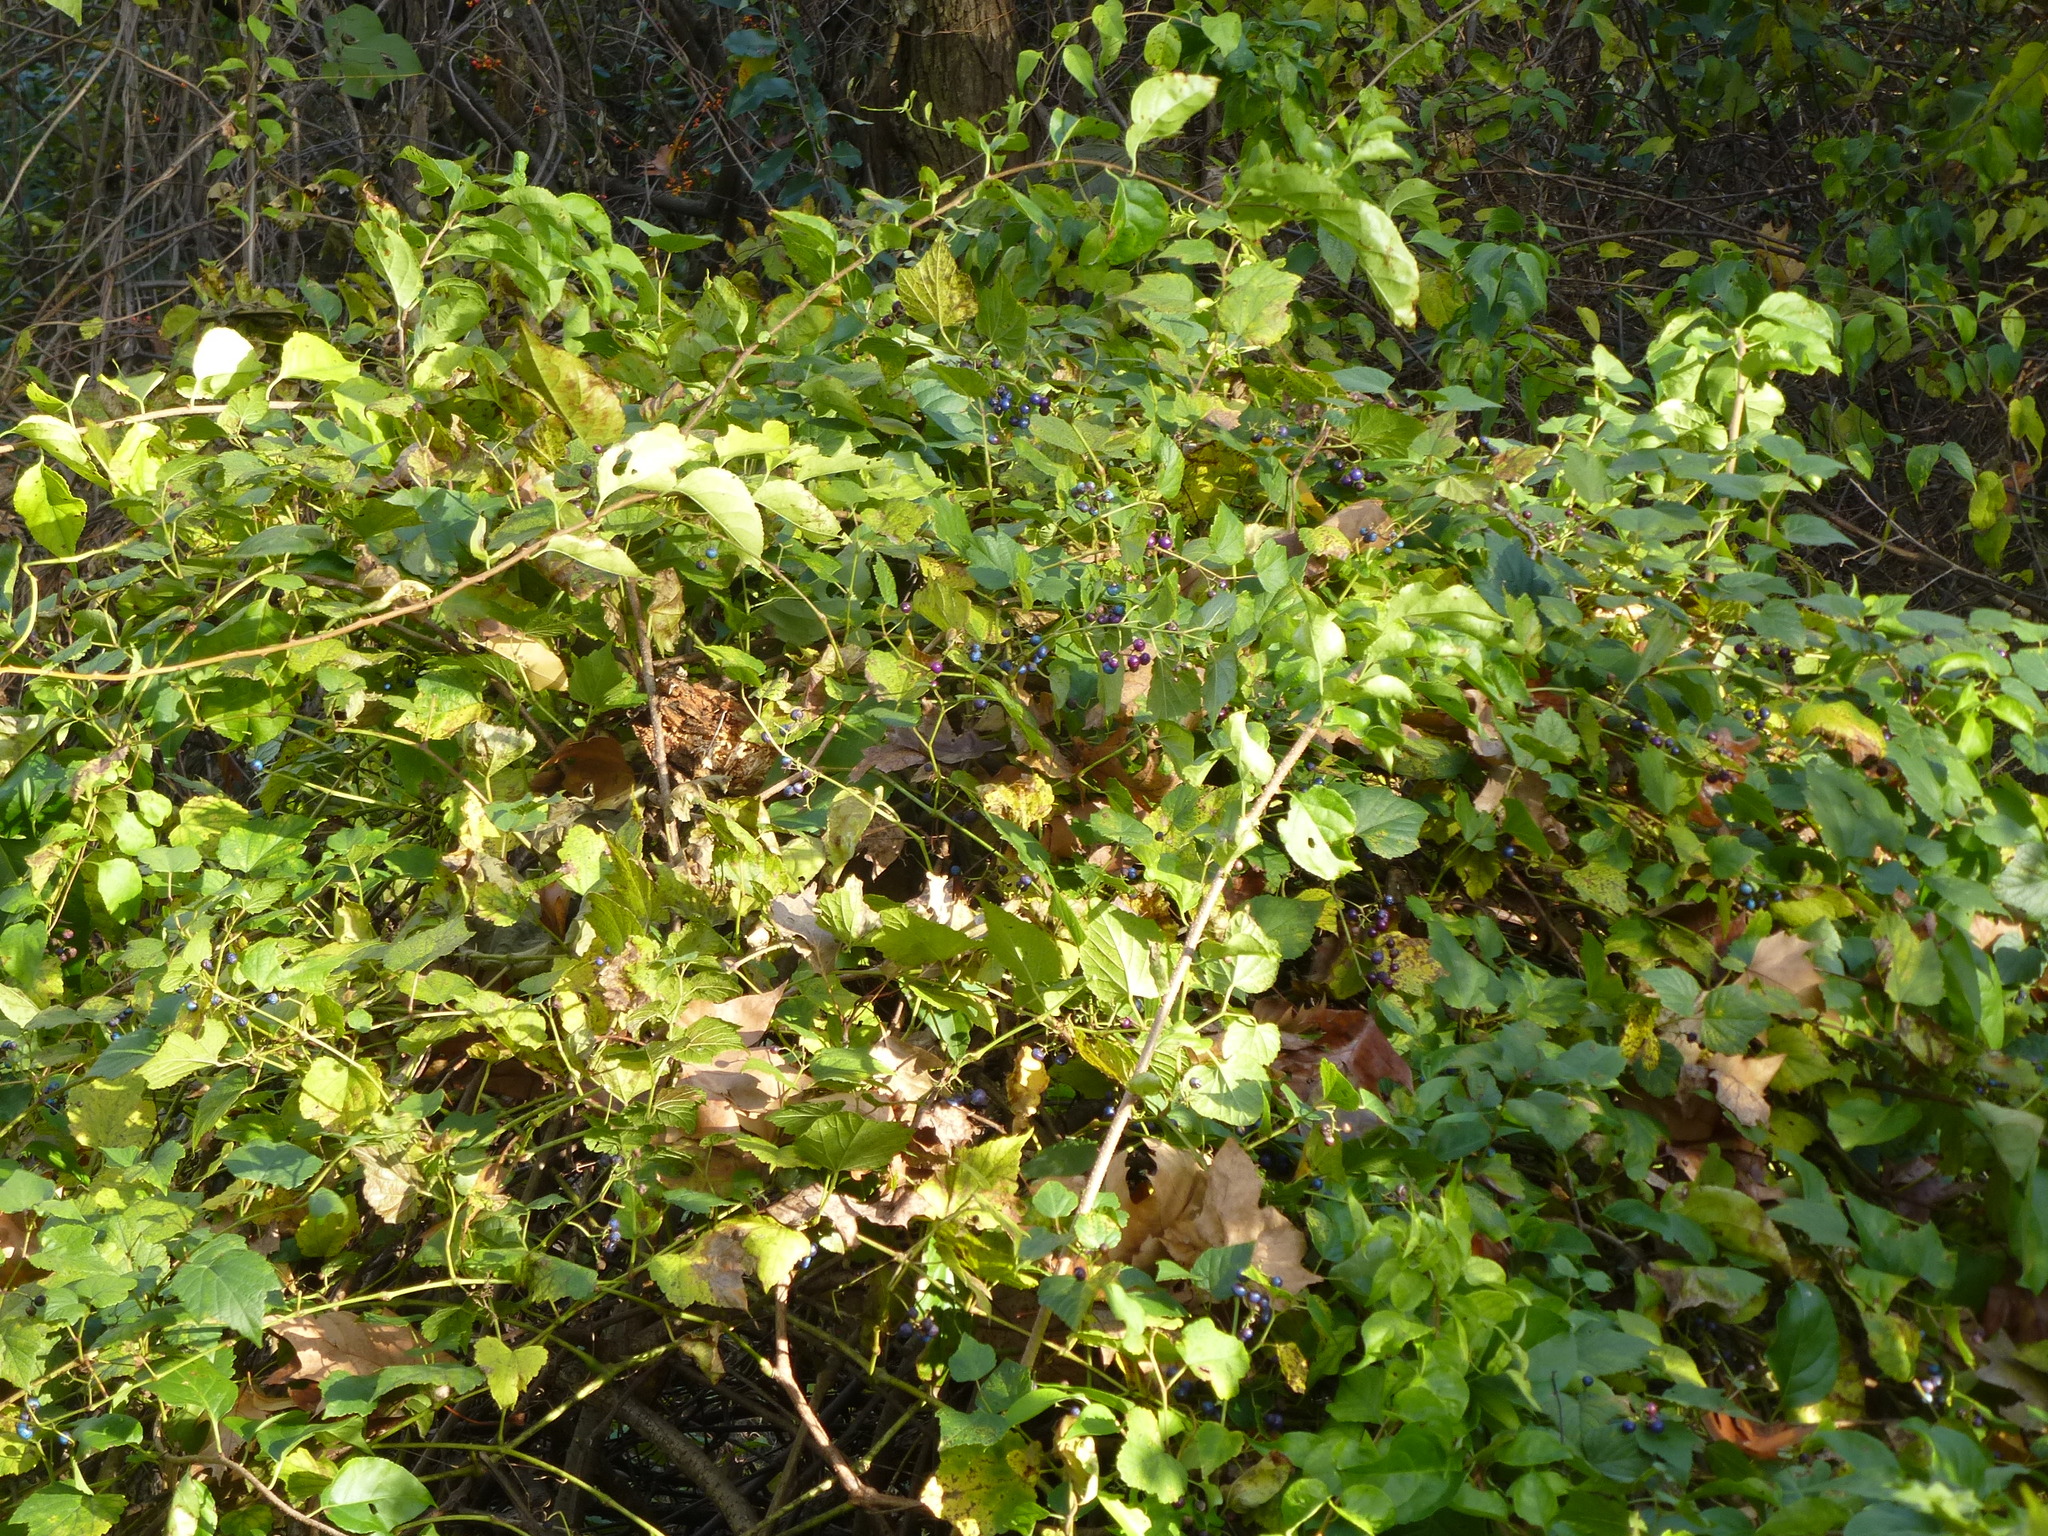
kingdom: Plantae
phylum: Tracheophyta
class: Magnoliopsida
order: Vitales
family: Vitaceae
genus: Ampelopsis
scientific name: Ampelopsis glandulosa
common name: Amur peppervine
